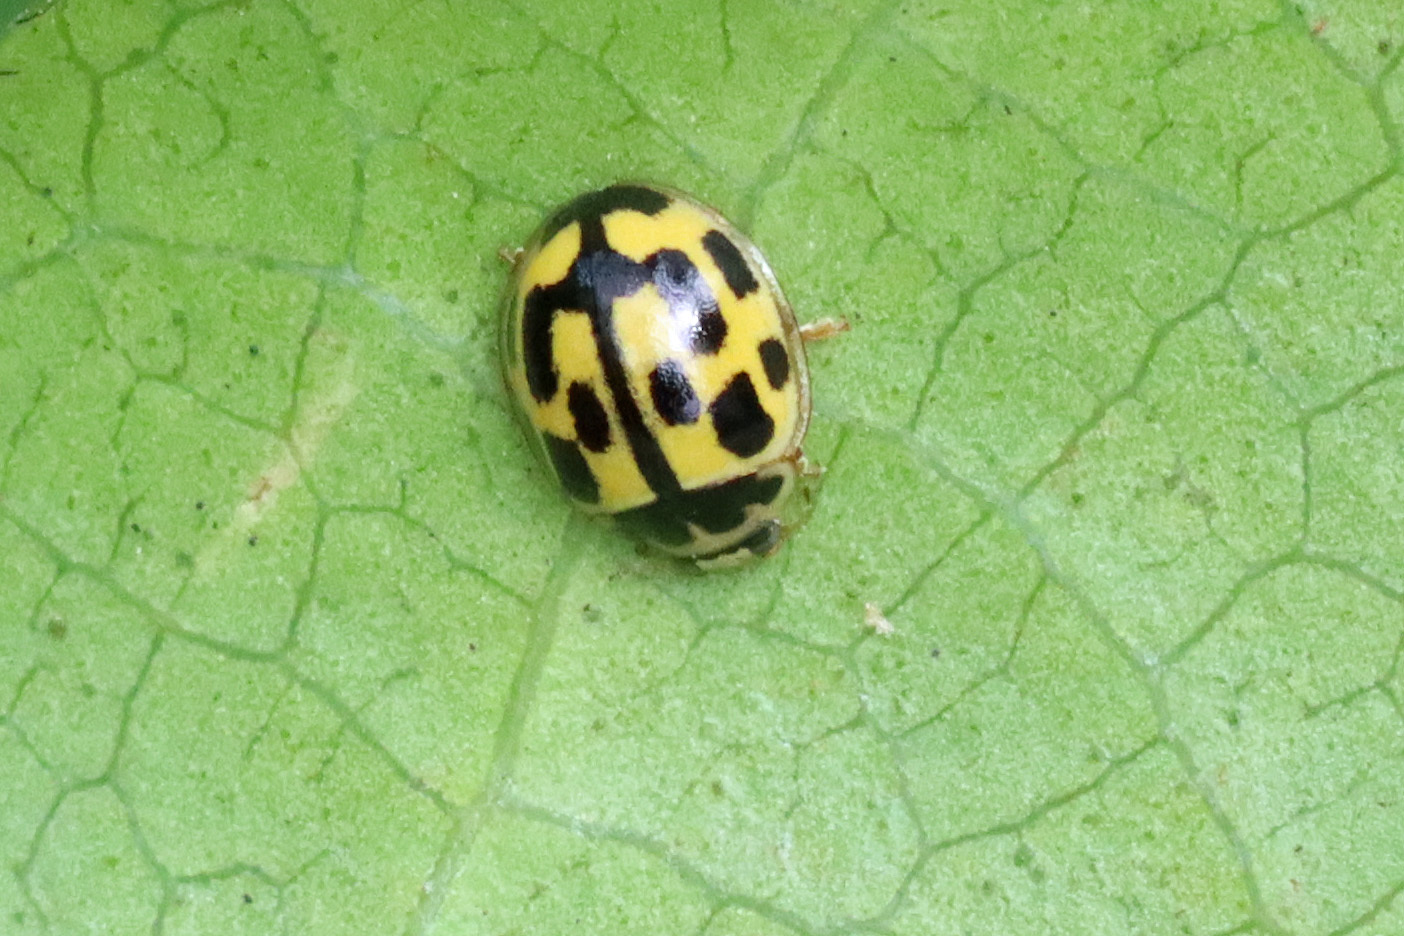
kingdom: Animalia
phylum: Arthropoda
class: Insecta
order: Coleoptera
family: Coccinellidae
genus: Propylaea
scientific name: Propylaea quatuordecimpunctata
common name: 14-spotted ladybird beetle
